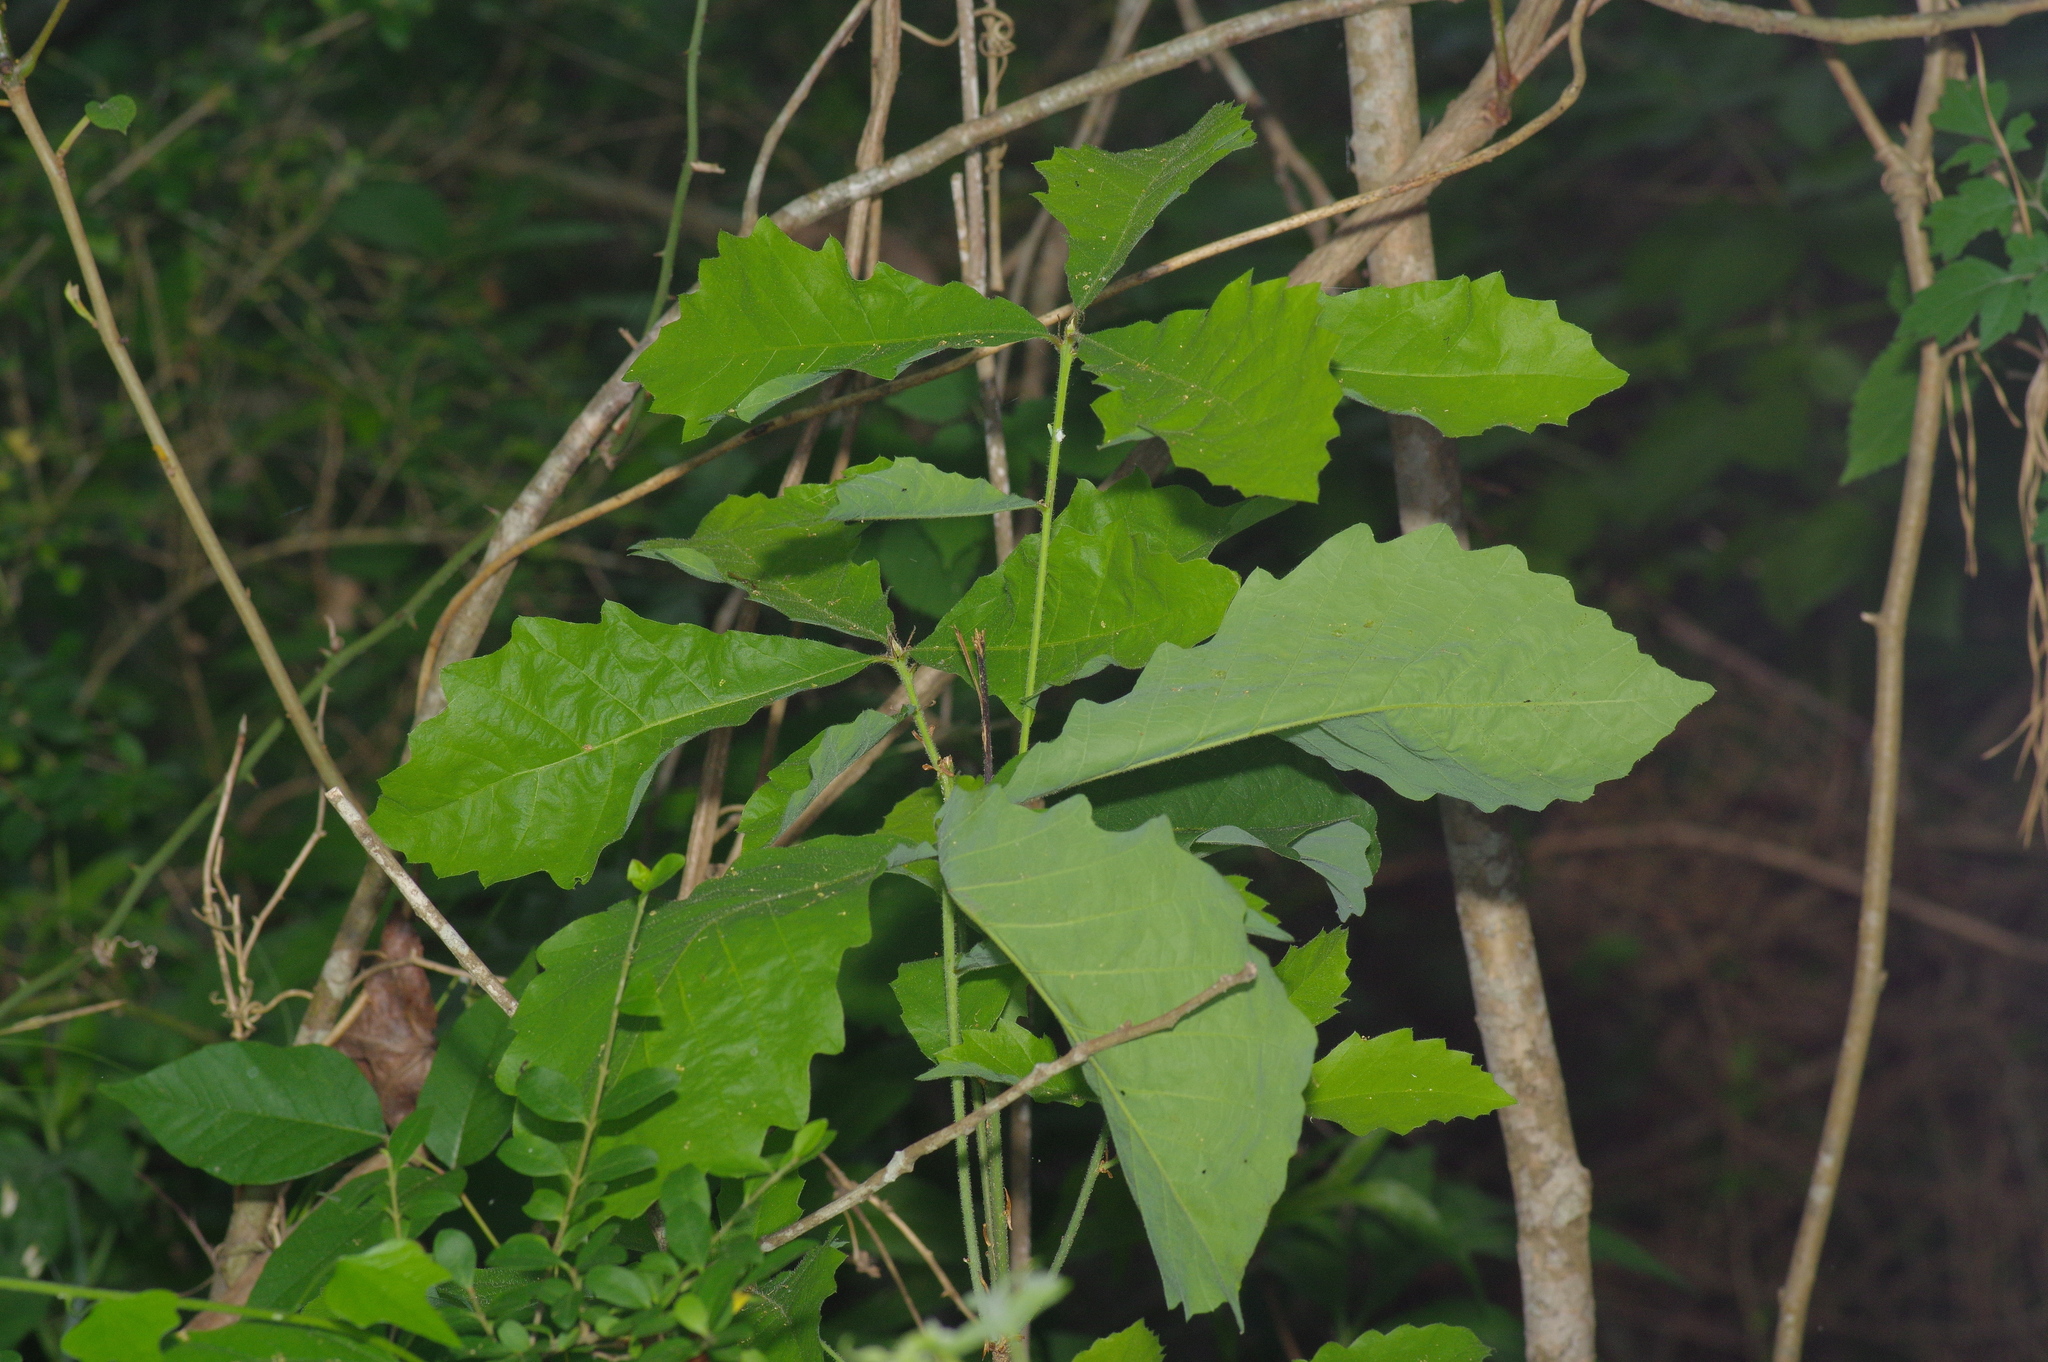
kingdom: Plantae
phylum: Tracheophyta
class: Magnoliopsida
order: Fagales
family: Fagaceae
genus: Quercus
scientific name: Quercus michauxii
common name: Swamp chestnut oak
